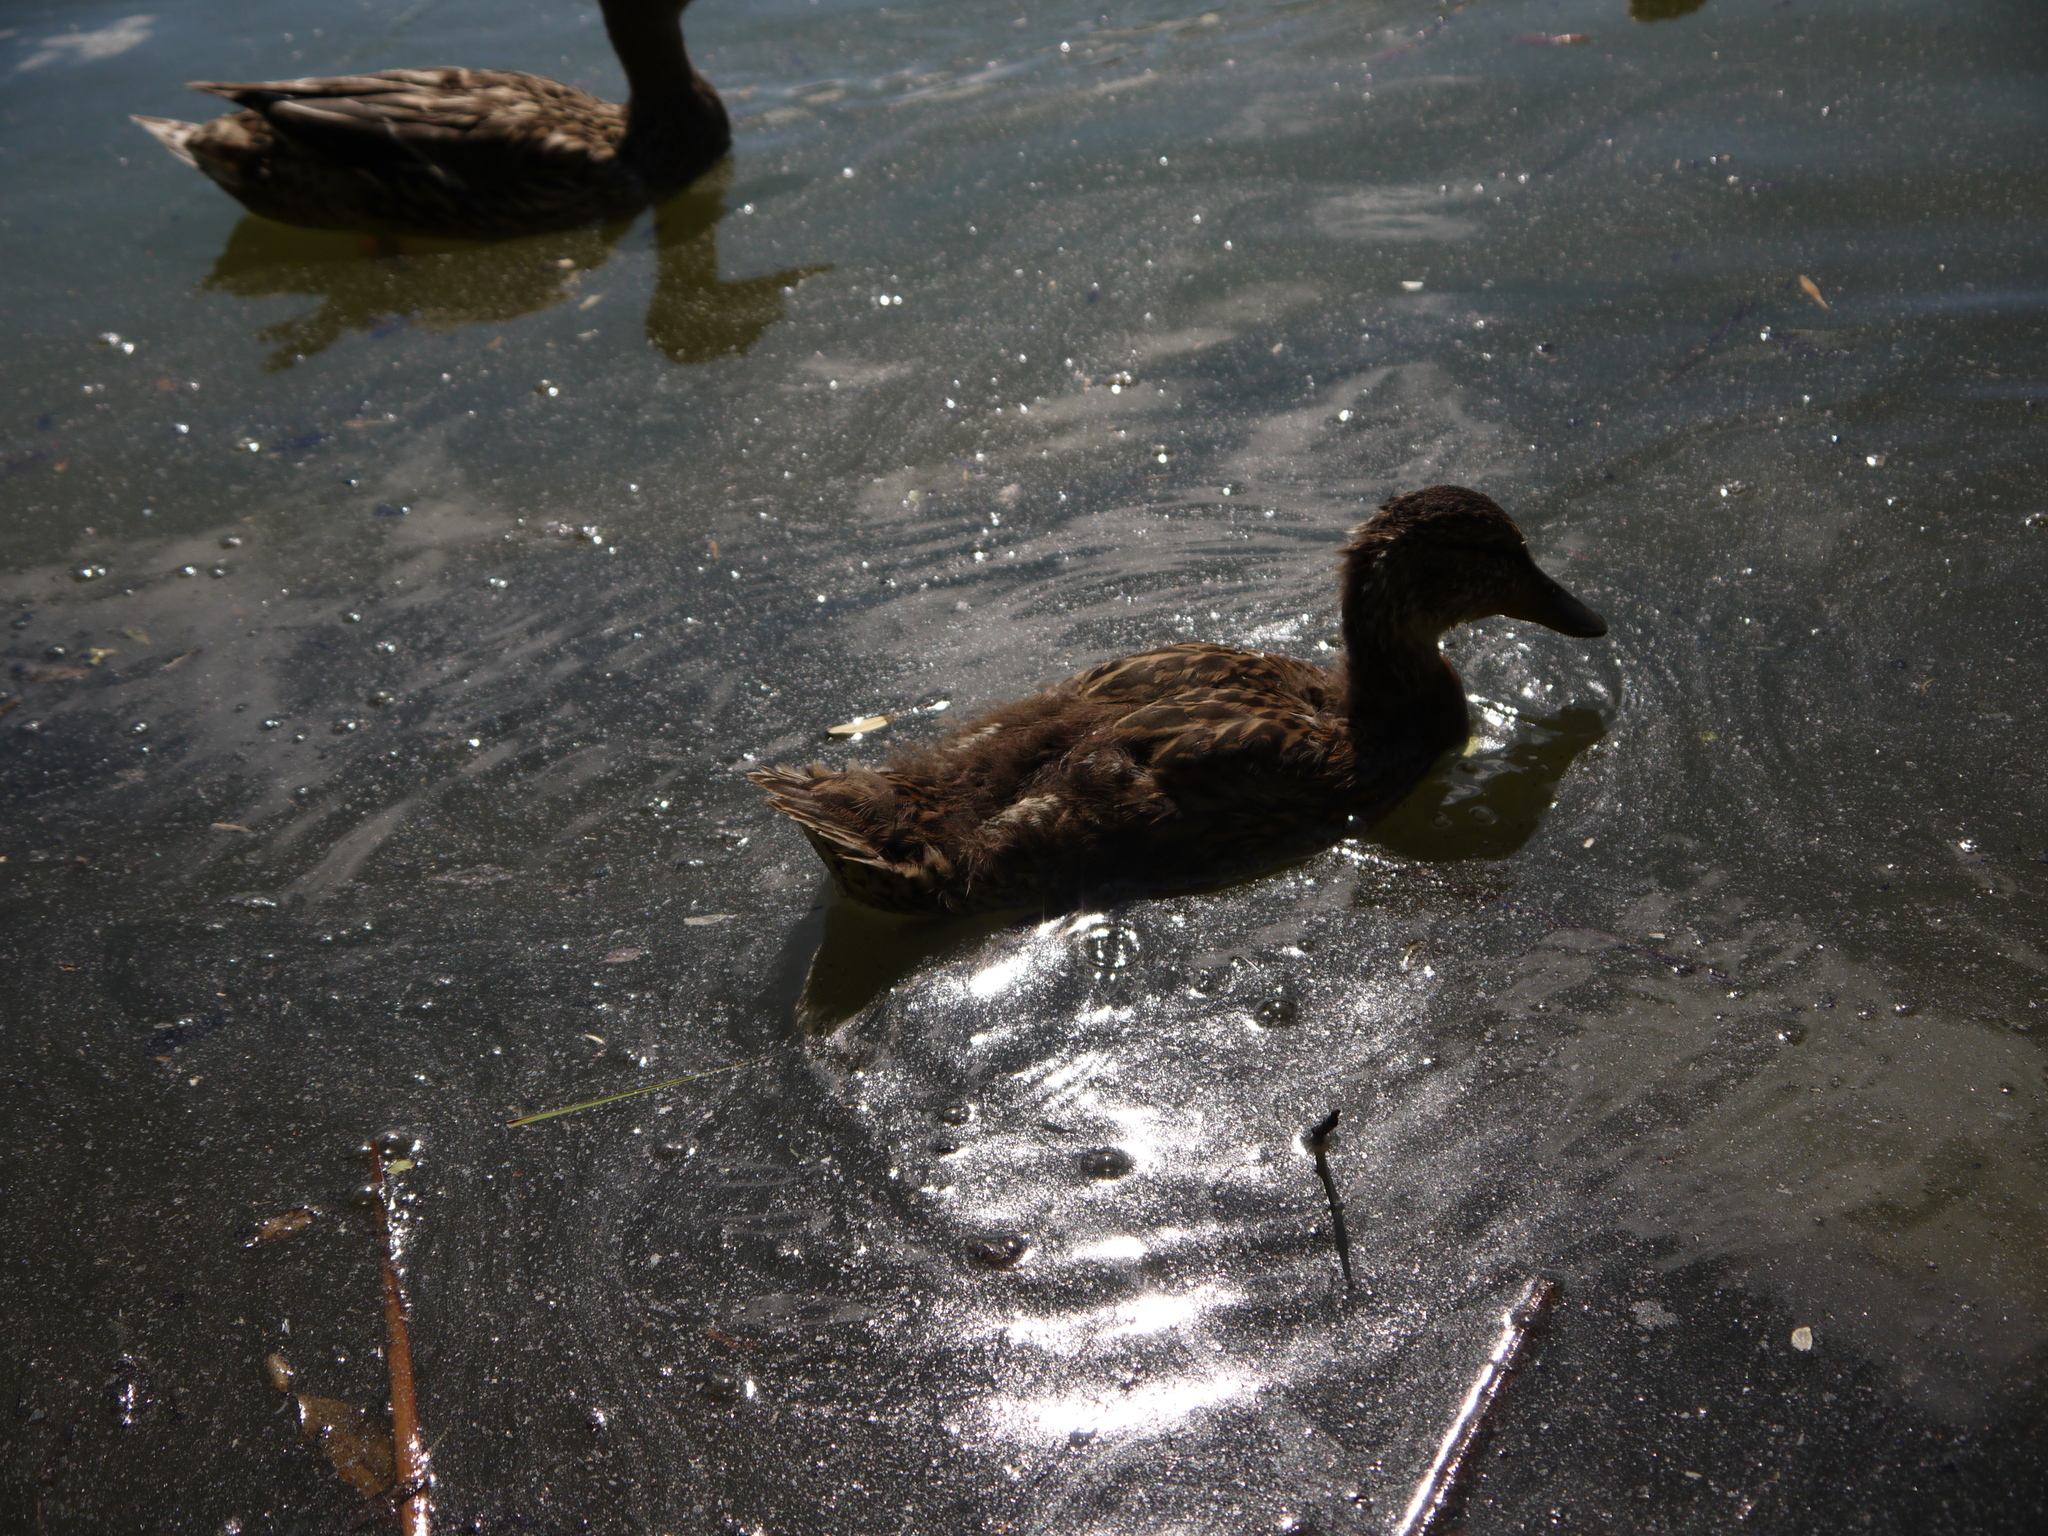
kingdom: Animalia
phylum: Chordata
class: Aves
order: Anseriformes
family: Anatidae
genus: Anas
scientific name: Anas platyrhynchos
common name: Mallard
